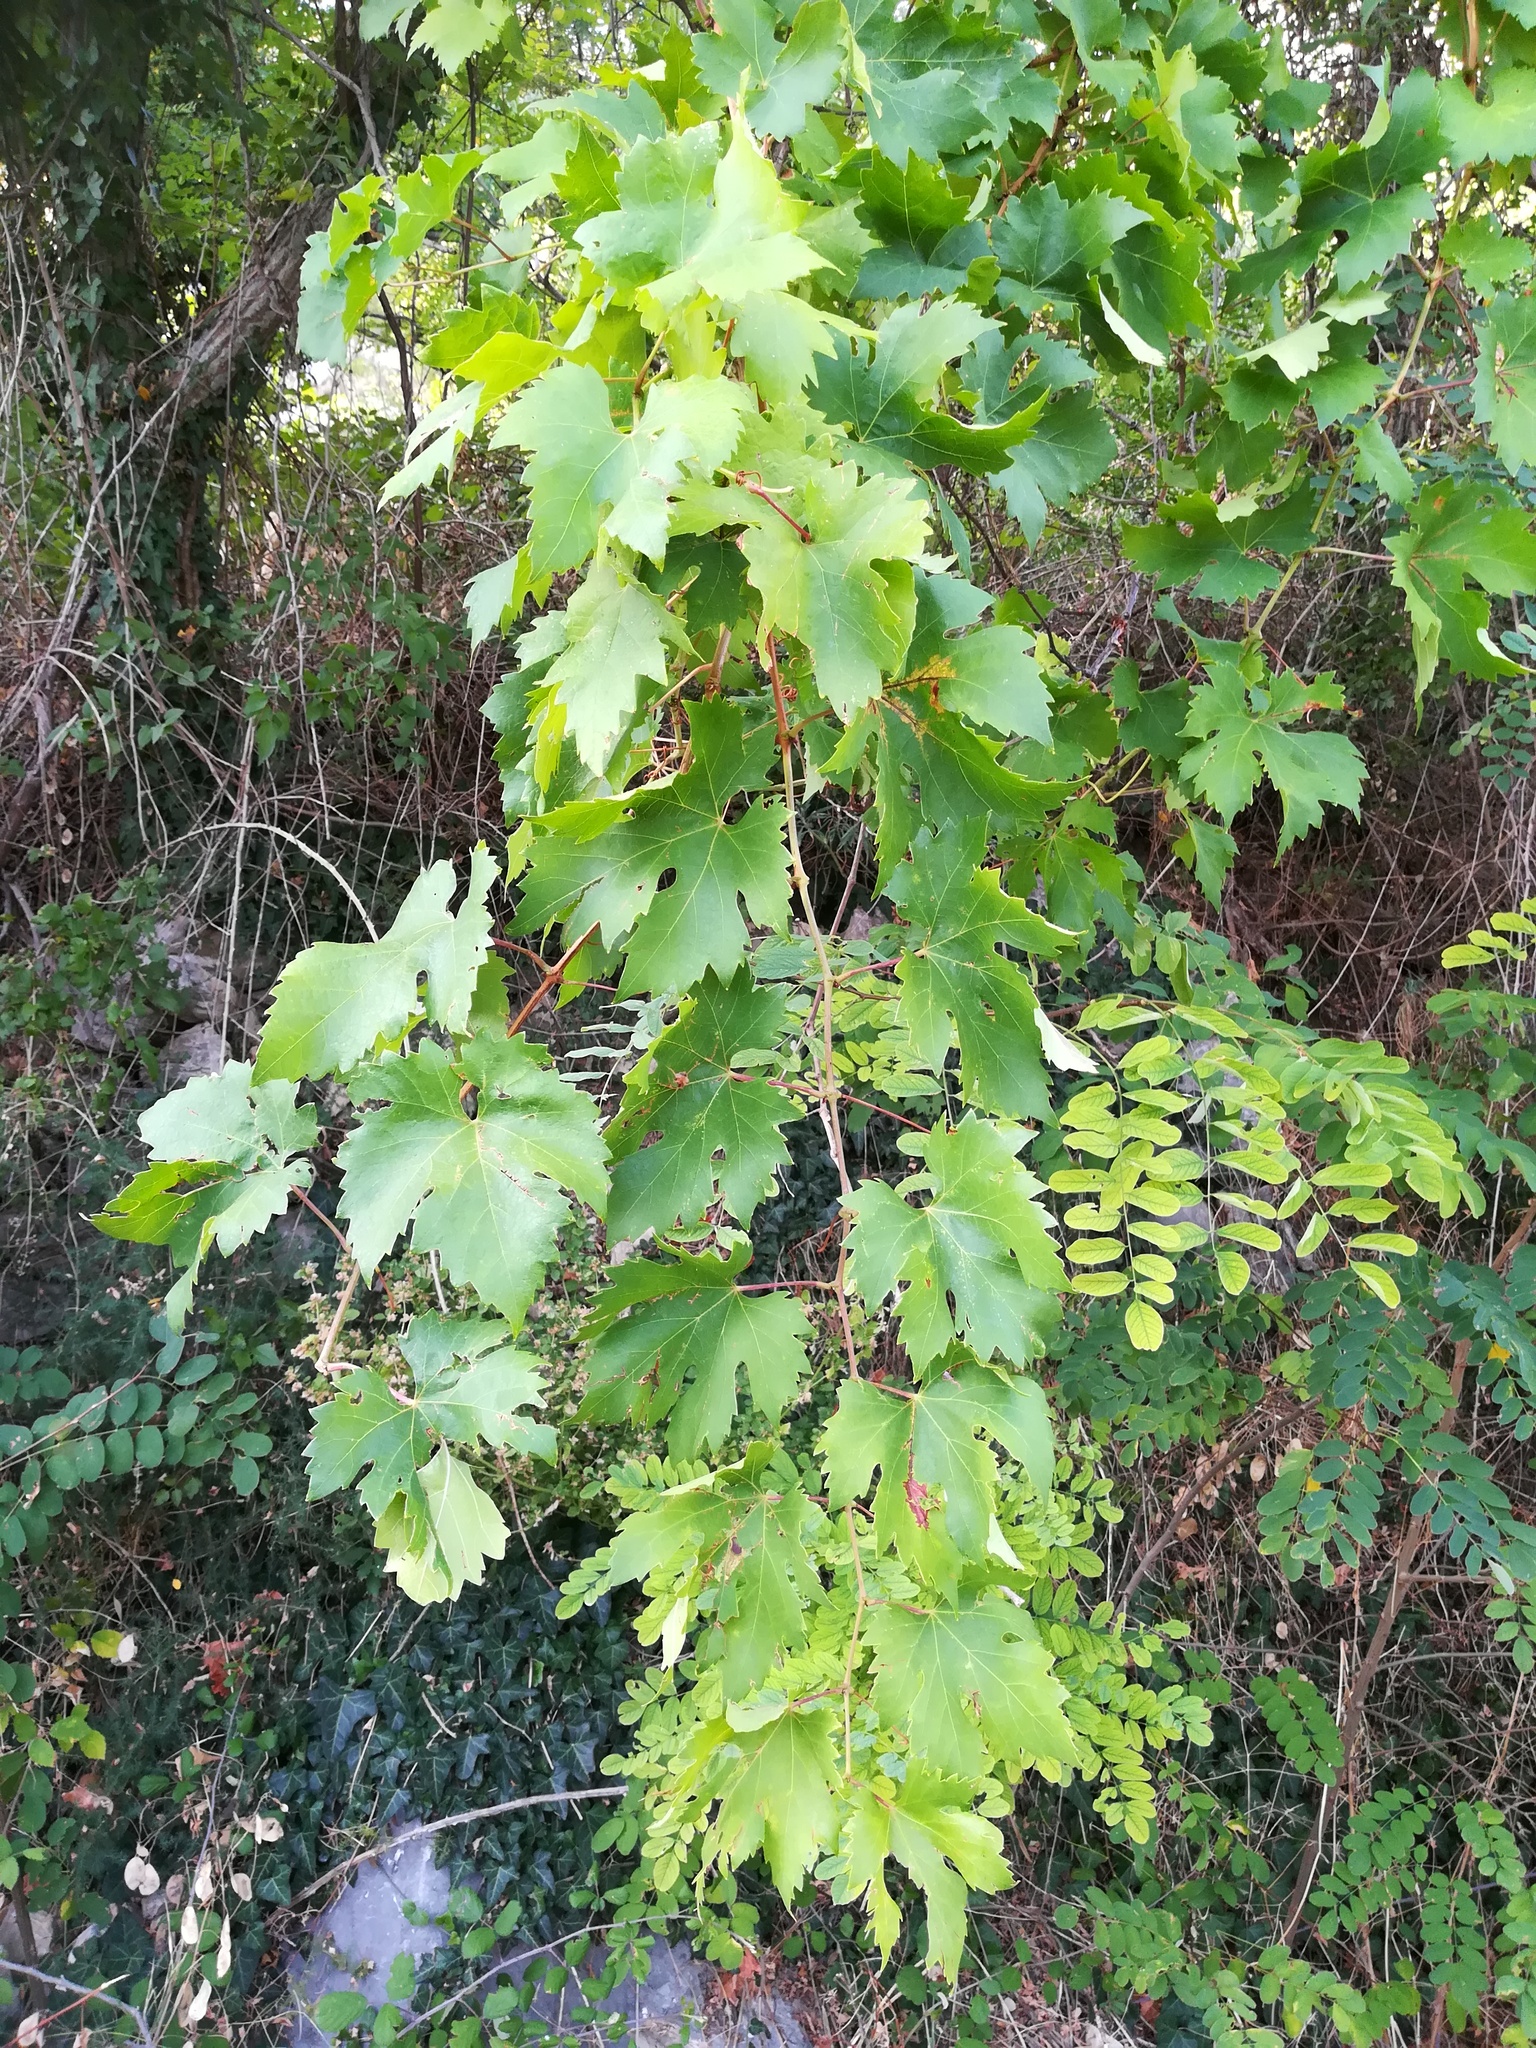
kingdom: Plantae
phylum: Tracheophyta
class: Magnoliopsida
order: Vitales
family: Vitaceae
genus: Vitis
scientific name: Vitis vinifera
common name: Grape-vine
